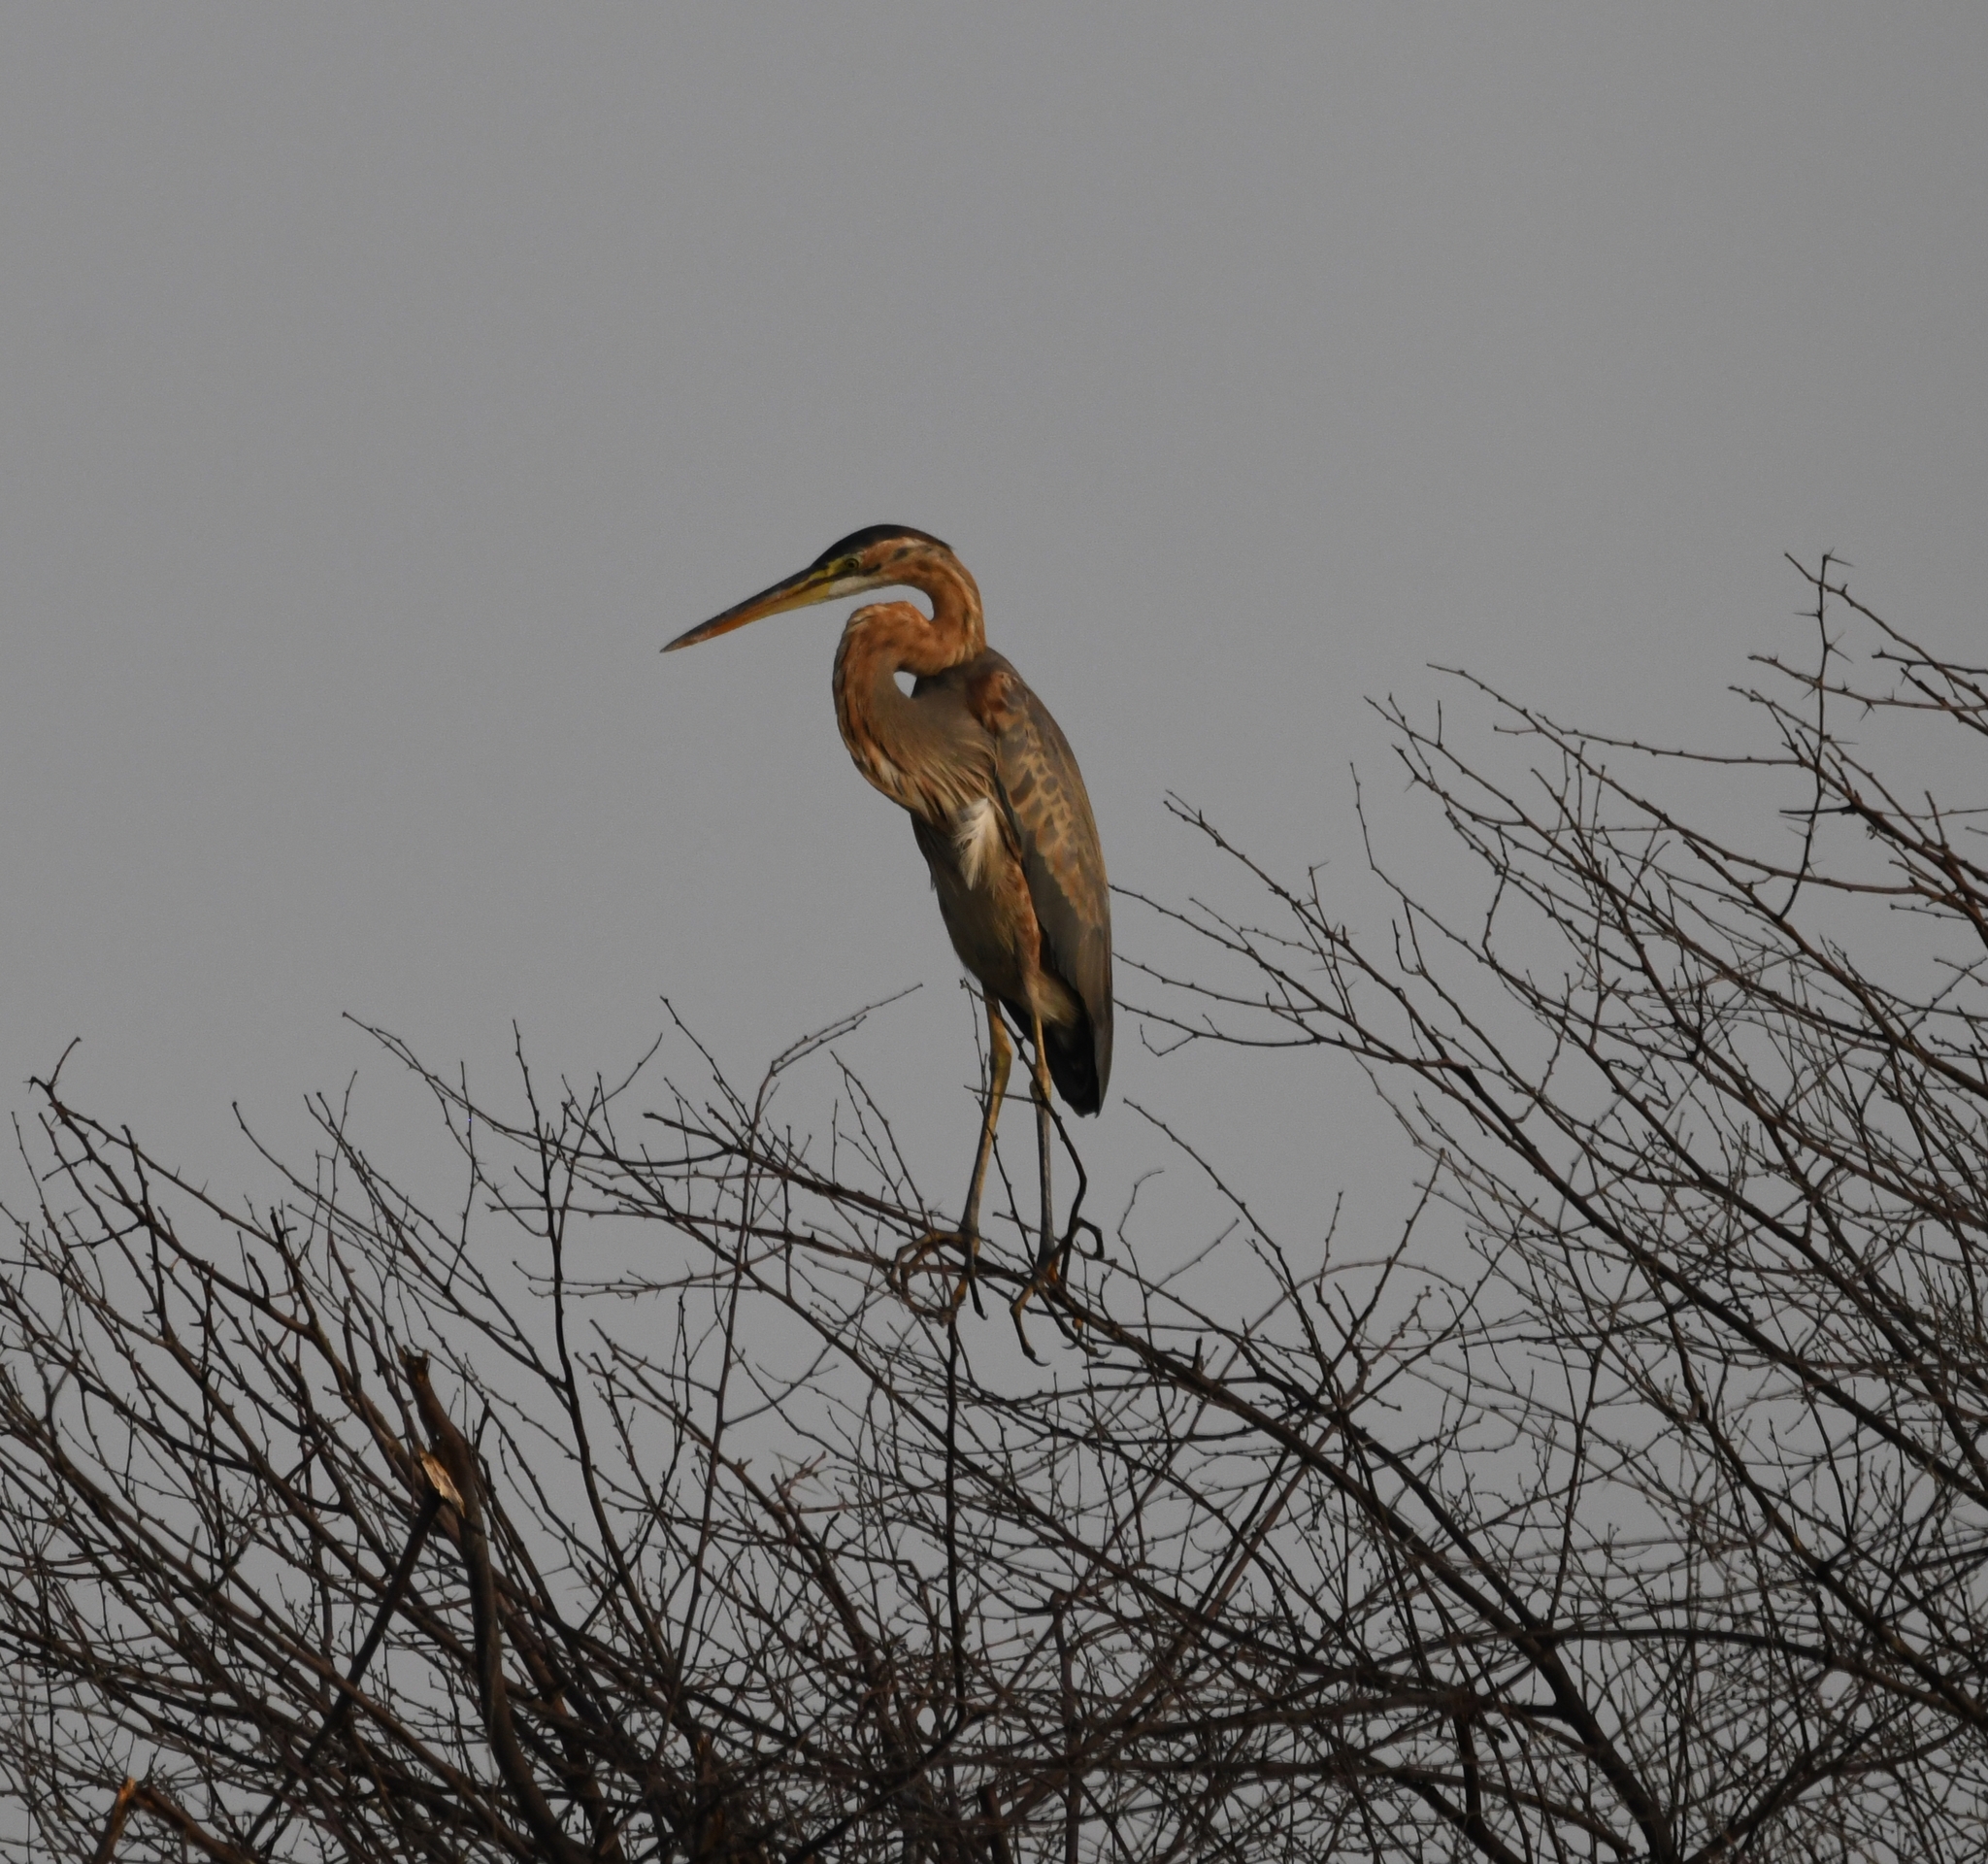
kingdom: Animalia
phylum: Chordata
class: Aves
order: Pelecaniformes
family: Ardeidae
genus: Ardea
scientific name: Ardea purpurea
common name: Purple heron
